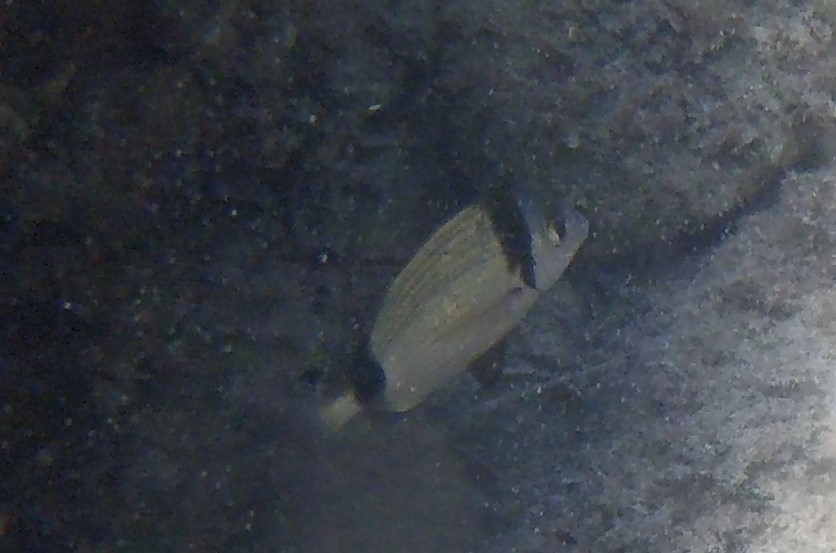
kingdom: Animalia
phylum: Chordata
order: Perciformes
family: Sparidae
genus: Diplodus
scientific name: Diplodus vulgaris
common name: Common two-banded seabream
